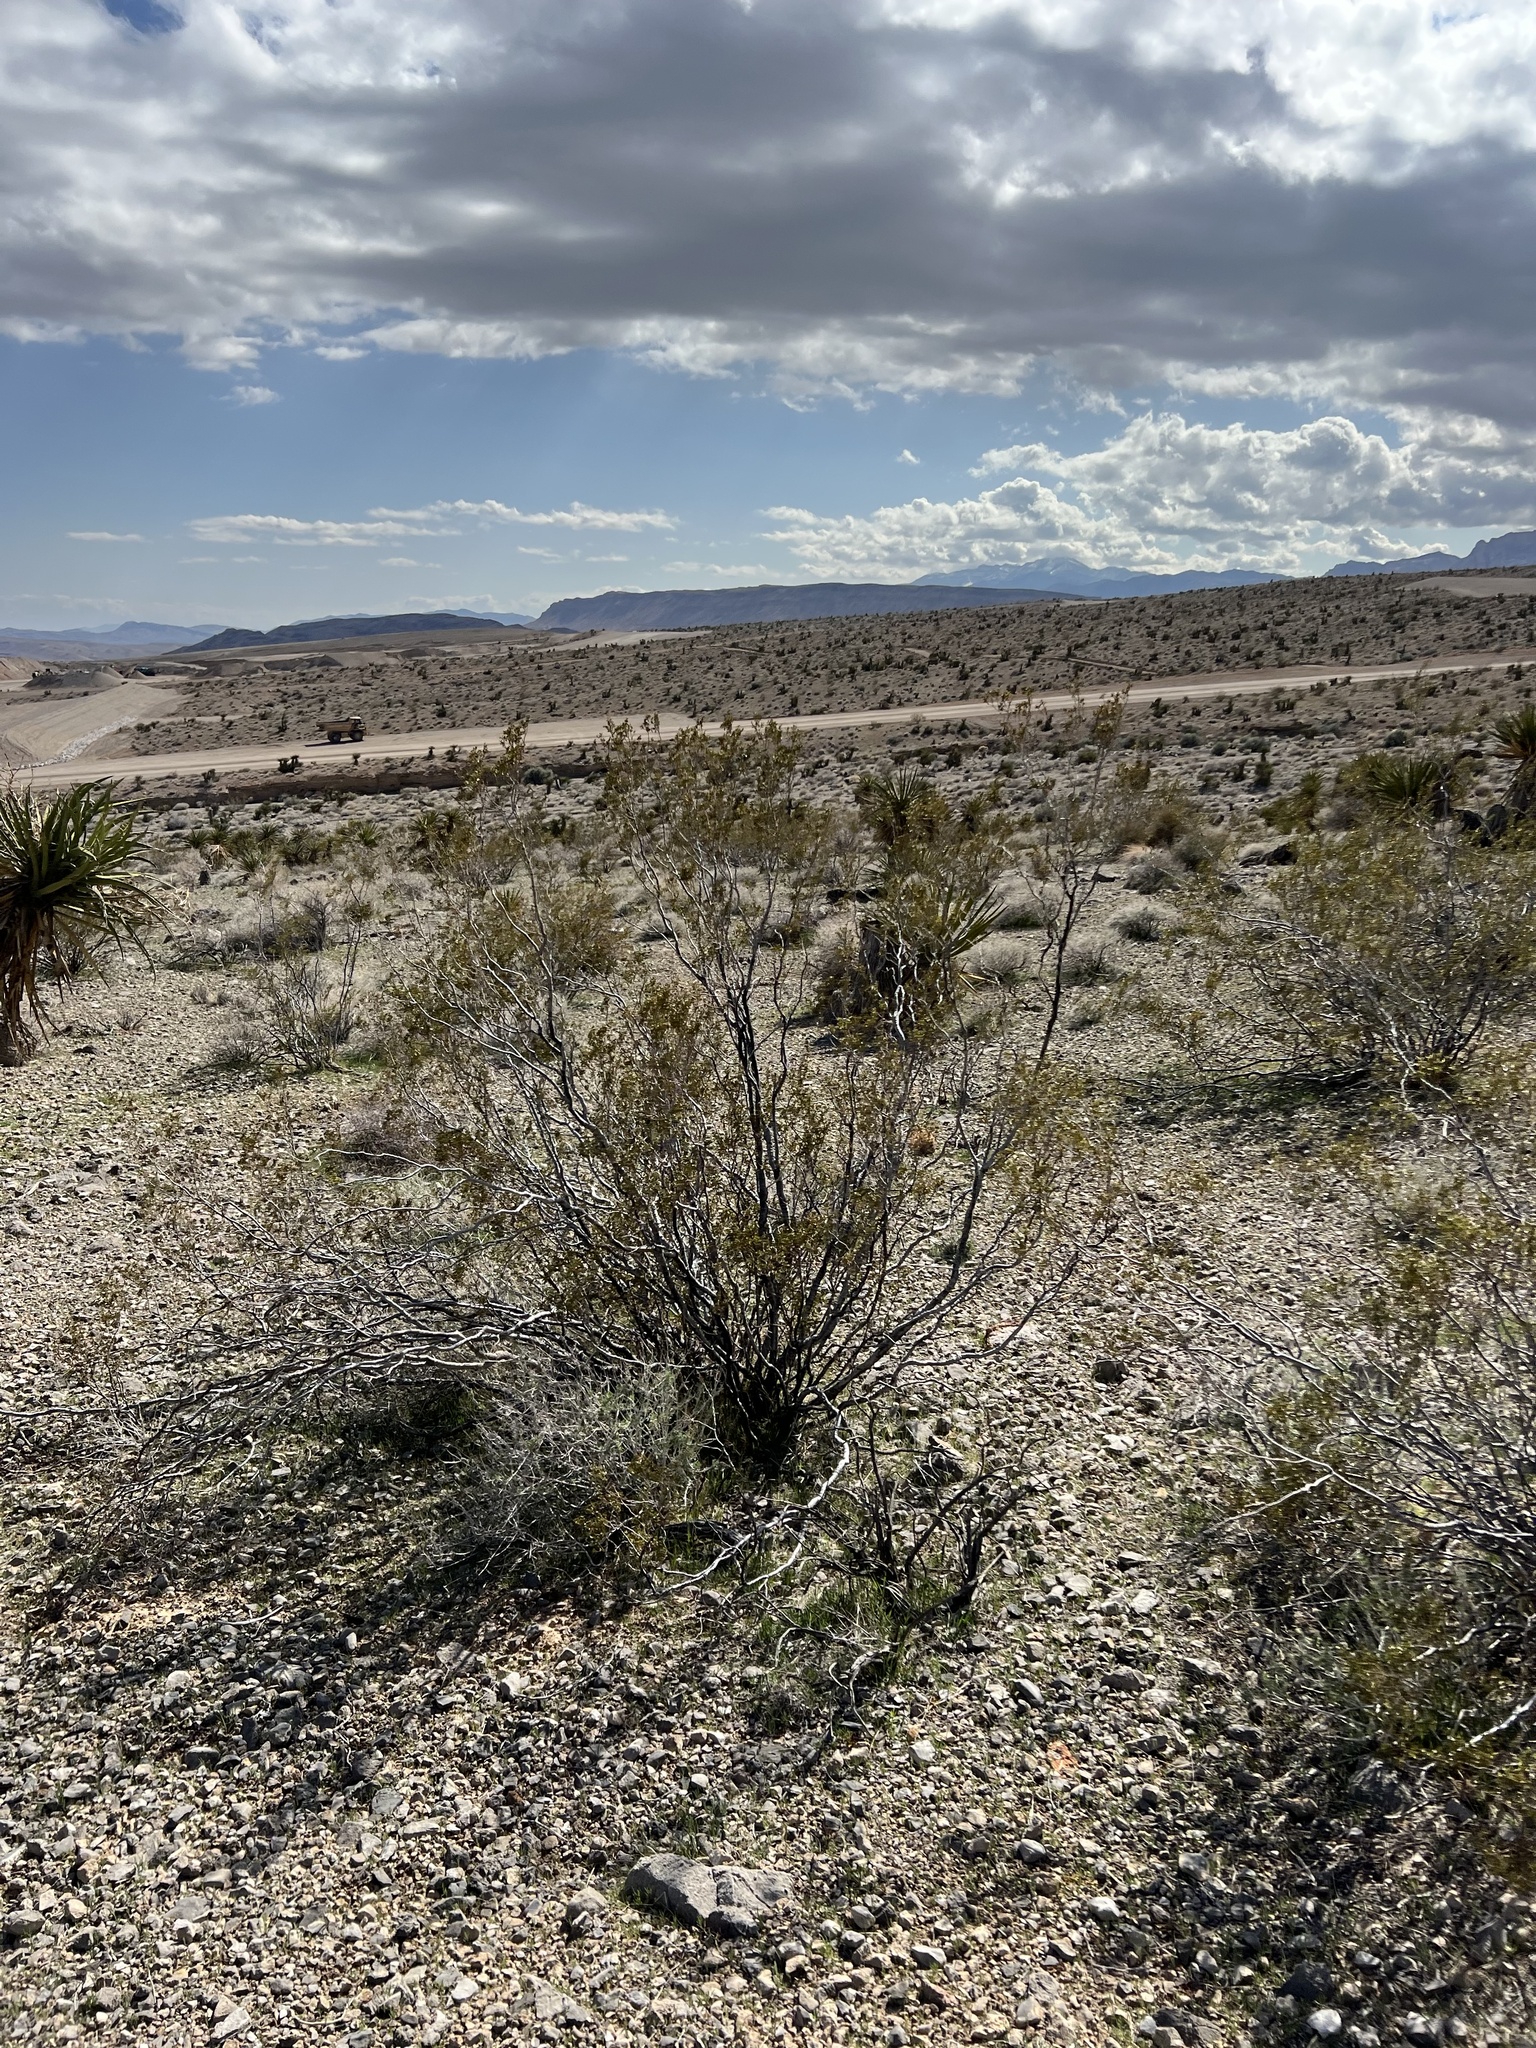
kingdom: Plantae
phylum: Tracheophyta
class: Magnoliopsida
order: Zygophyllales
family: Zygophyllaceae
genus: Larrea
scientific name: Larrea tridentata
